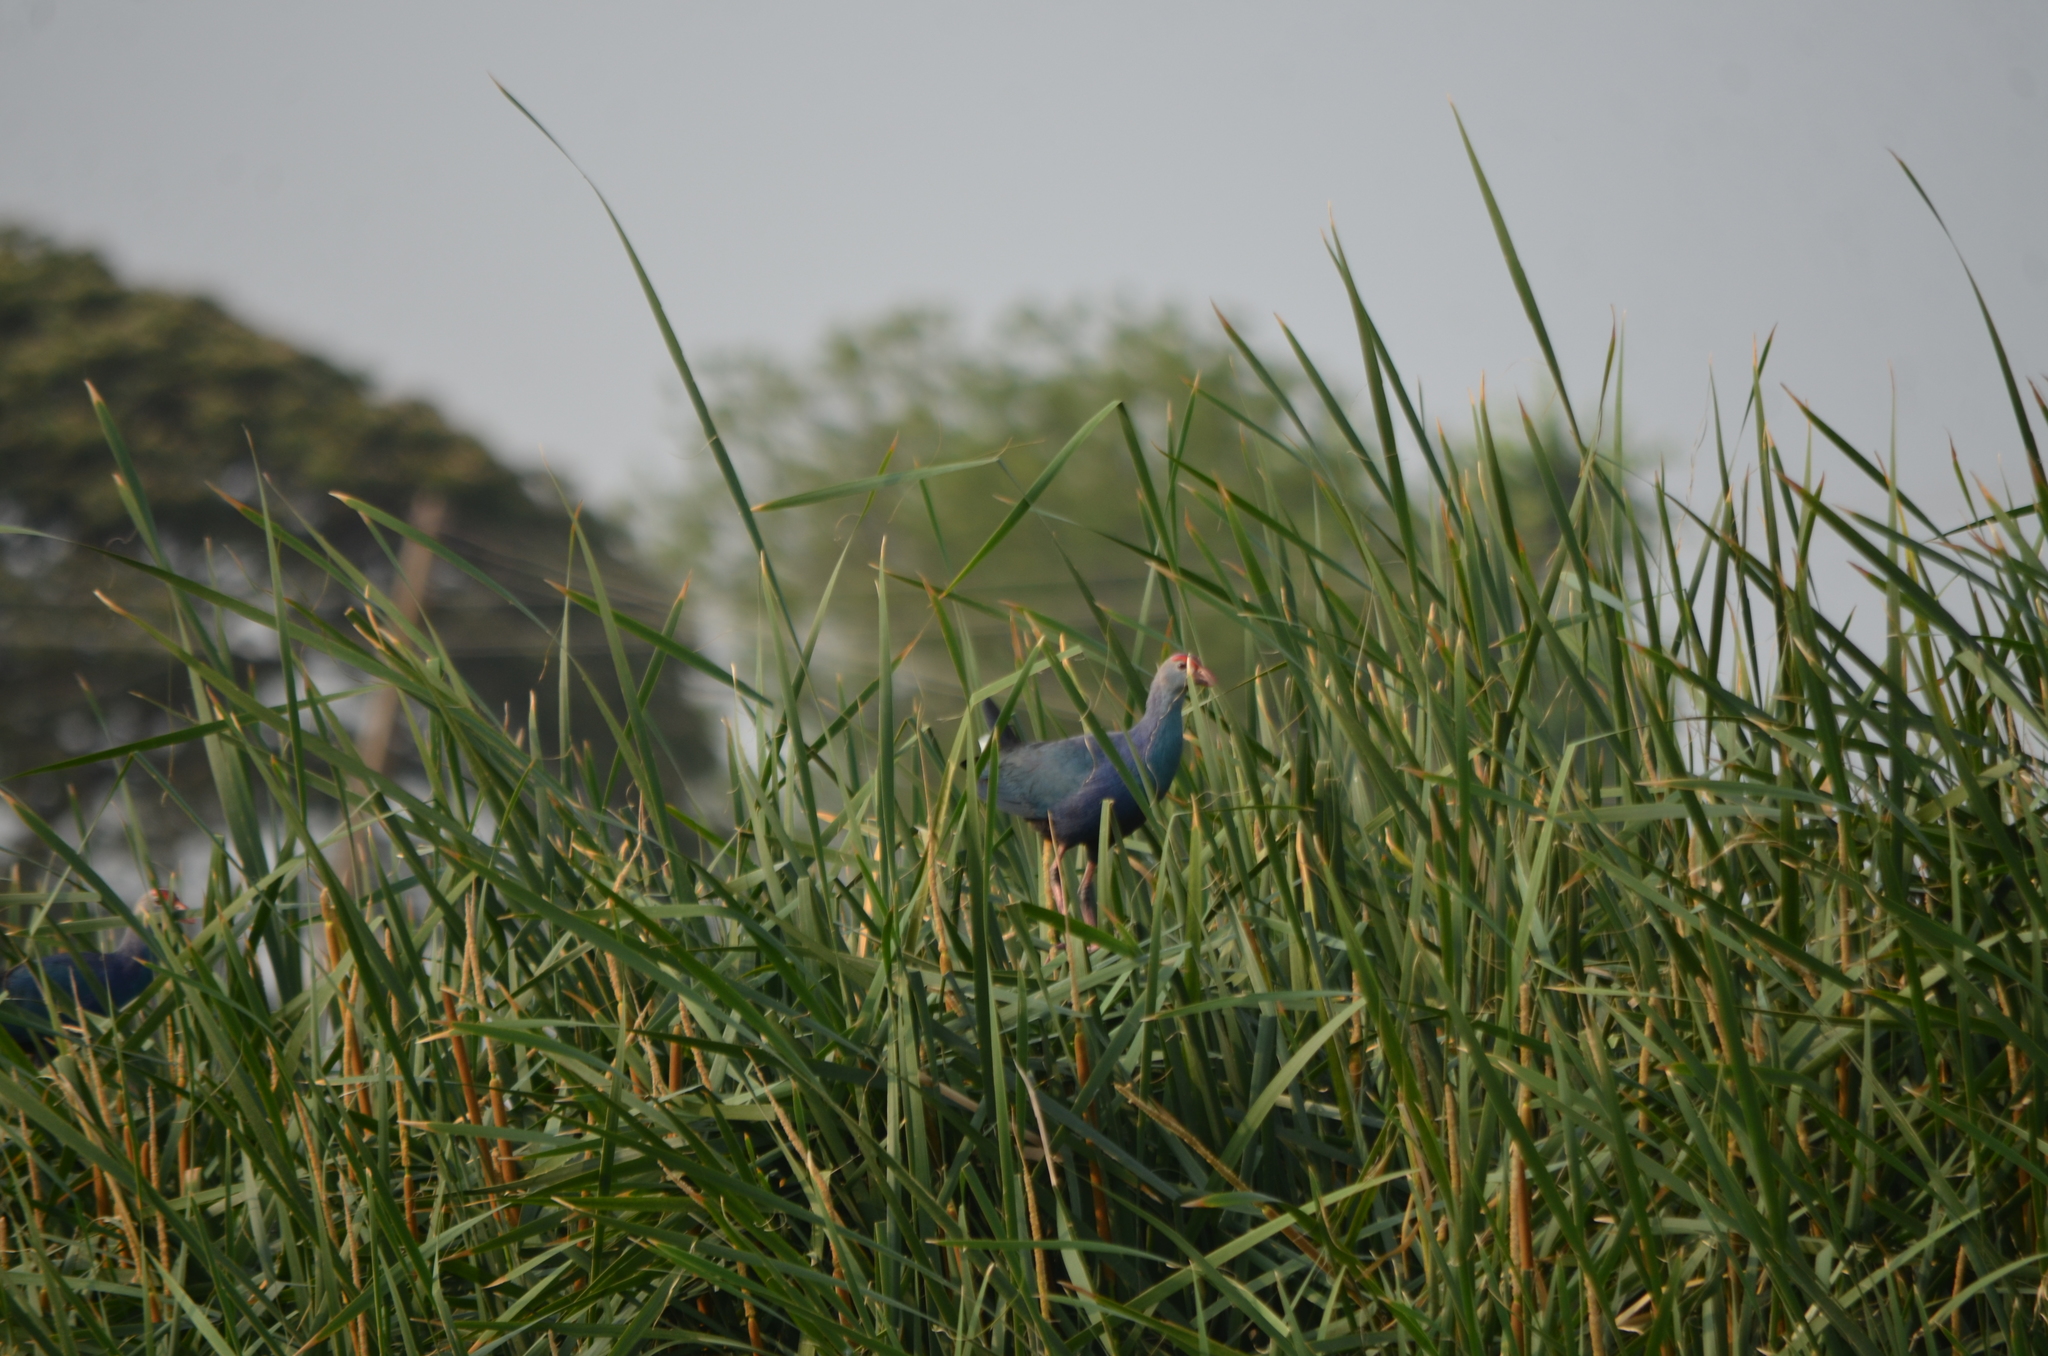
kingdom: Animalia
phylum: Chordata
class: Aves
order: Gruiformes
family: Rallidae
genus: Porphyrio
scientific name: Porphyrio porphyrio
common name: Purple swamphen
